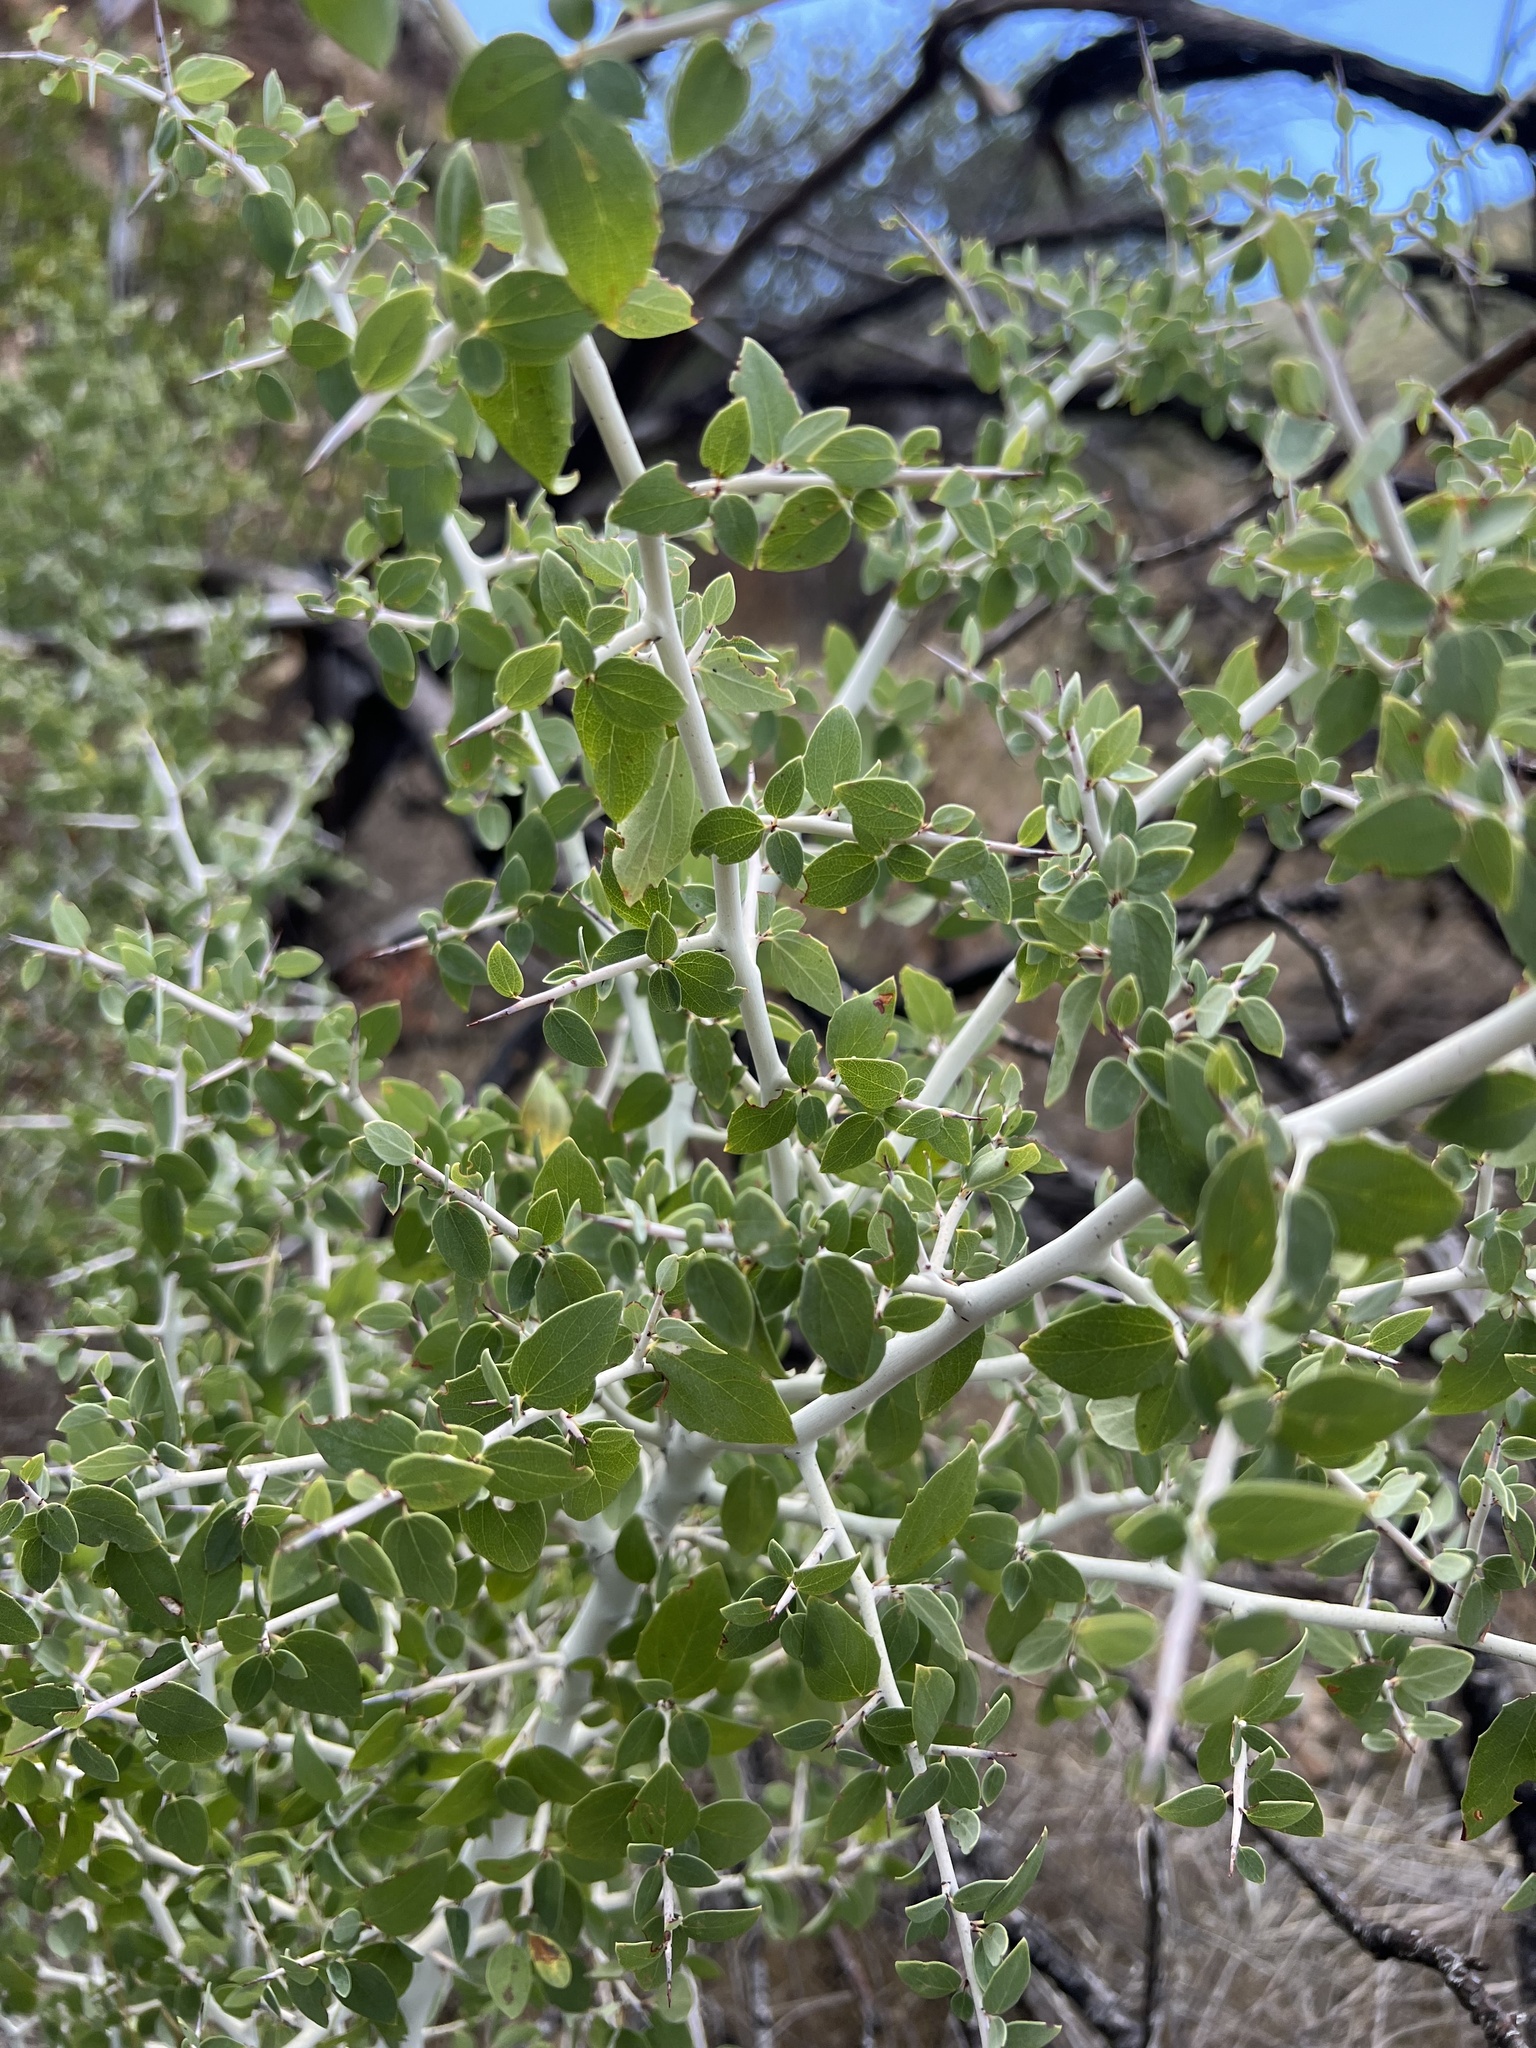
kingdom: Plantae
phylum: Tracheophyta
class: Magnoliopsida
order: Rosales
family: Rhamnaceae
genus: Ceanothus
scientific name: Ceanothus leucodermis
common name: Chaparral whitethorn
